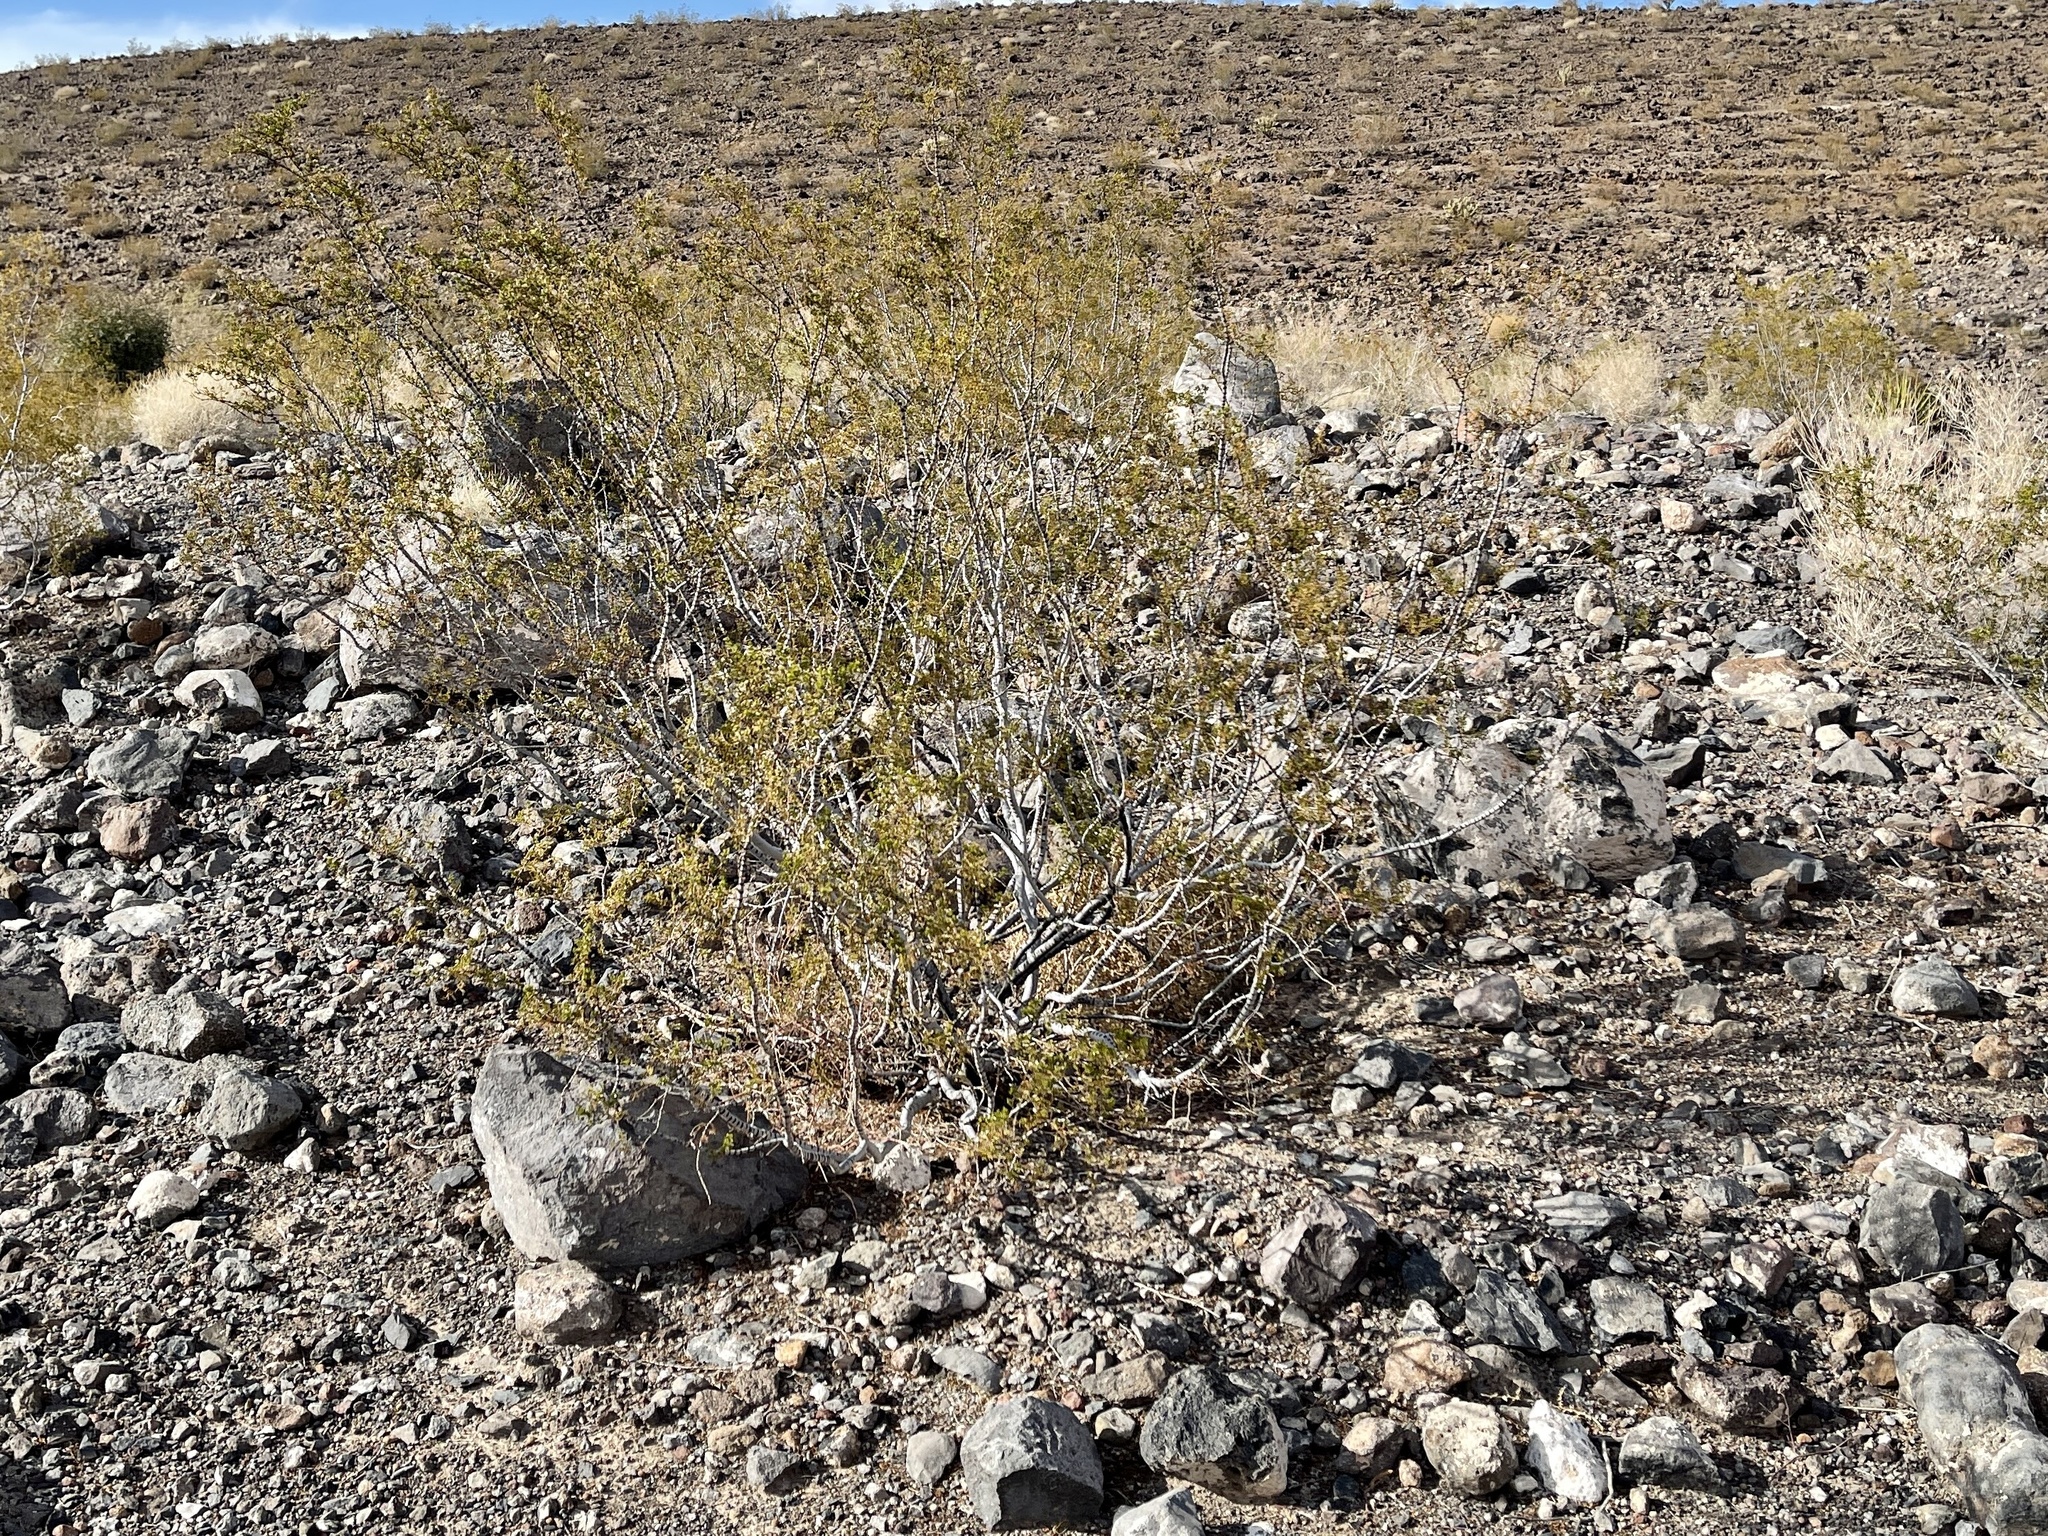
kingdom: Plantae
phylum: Tracheophyta
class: Magnoliopsida
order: Zygophyllales
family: Zygophyllaceae
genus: Larrea
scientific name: Larrea tridentata
